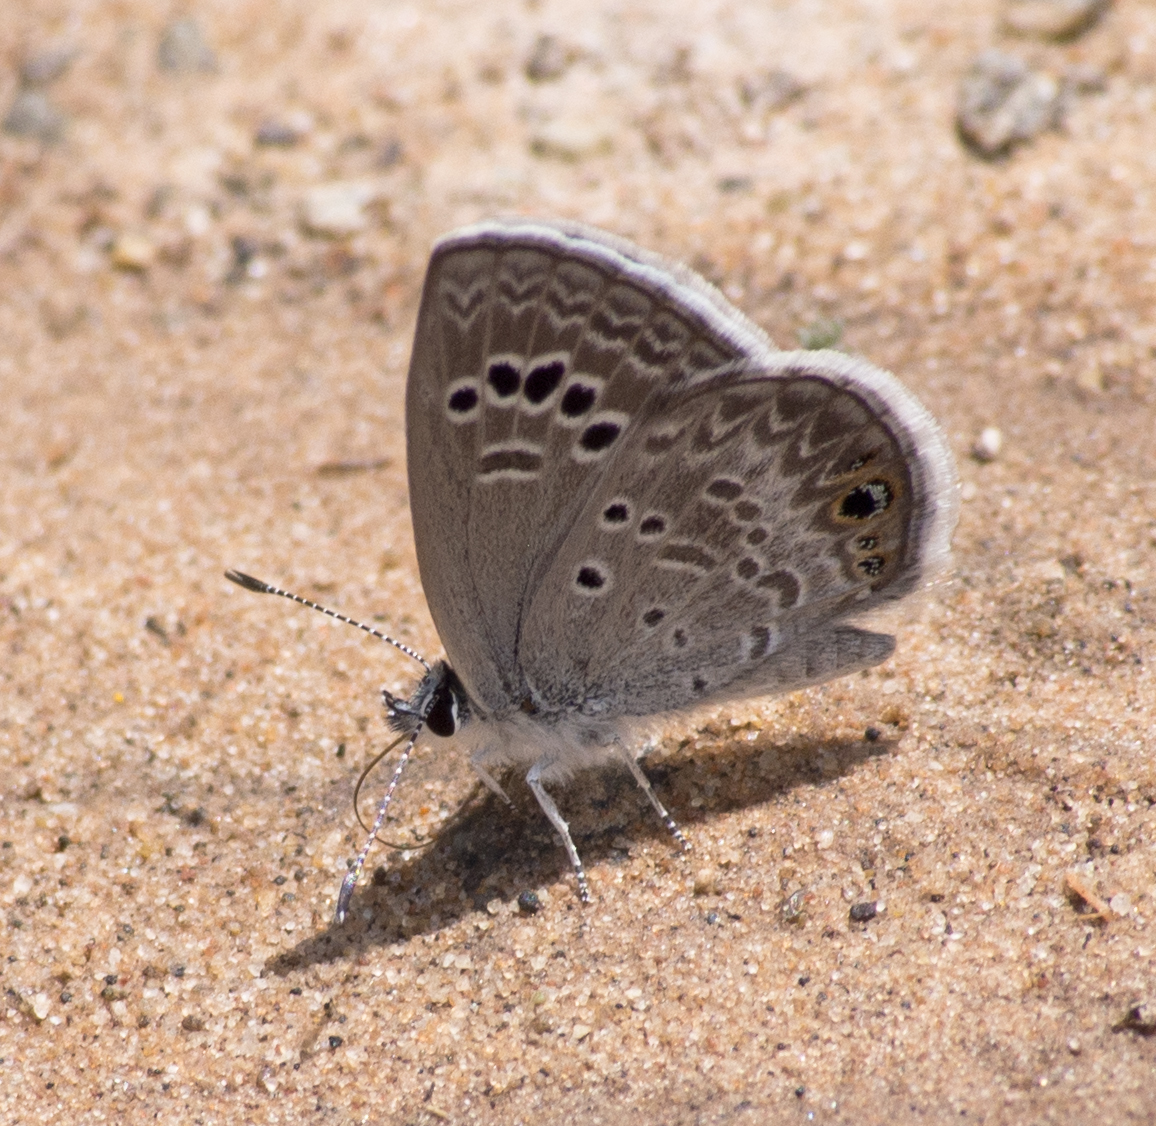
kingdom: Animalia
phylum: Arthropoda
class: Insecta
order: Lepidoptera
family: Lycaenidae
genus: Echinargus
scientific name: Echinargus isola
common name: Reakirt's blue
